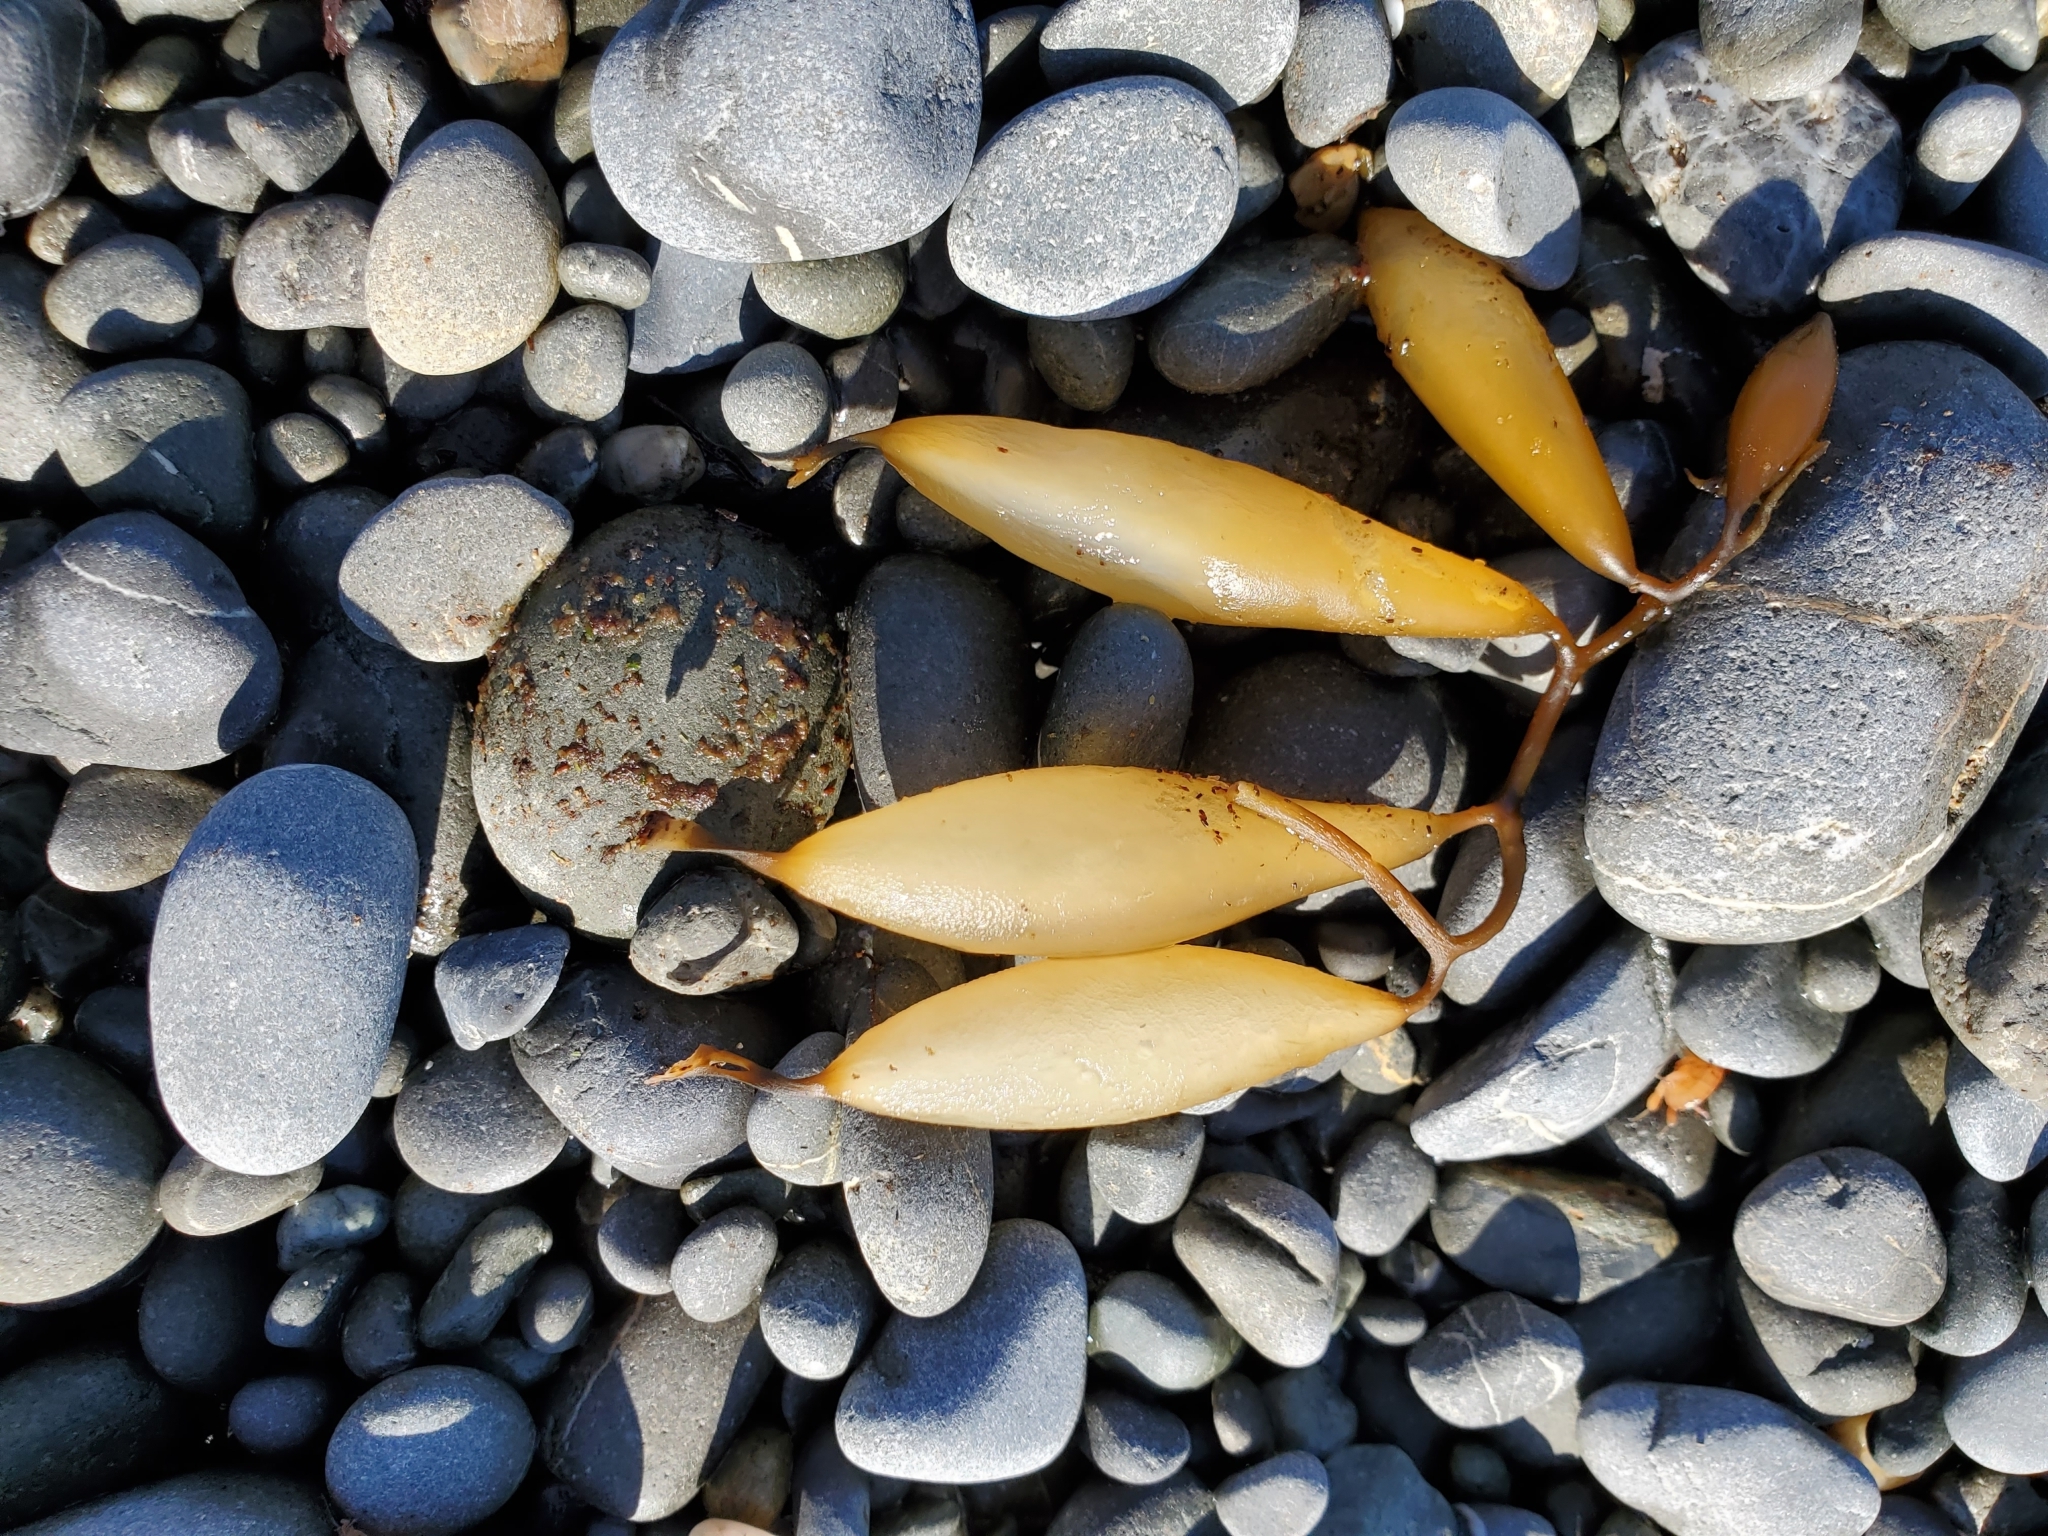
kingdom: Chromista
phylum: Ochrophyta
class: Phaeophyceae
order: Laminariales
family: Laminariaceae
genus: Macrocystis
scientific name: Macrocystis pyrifera
